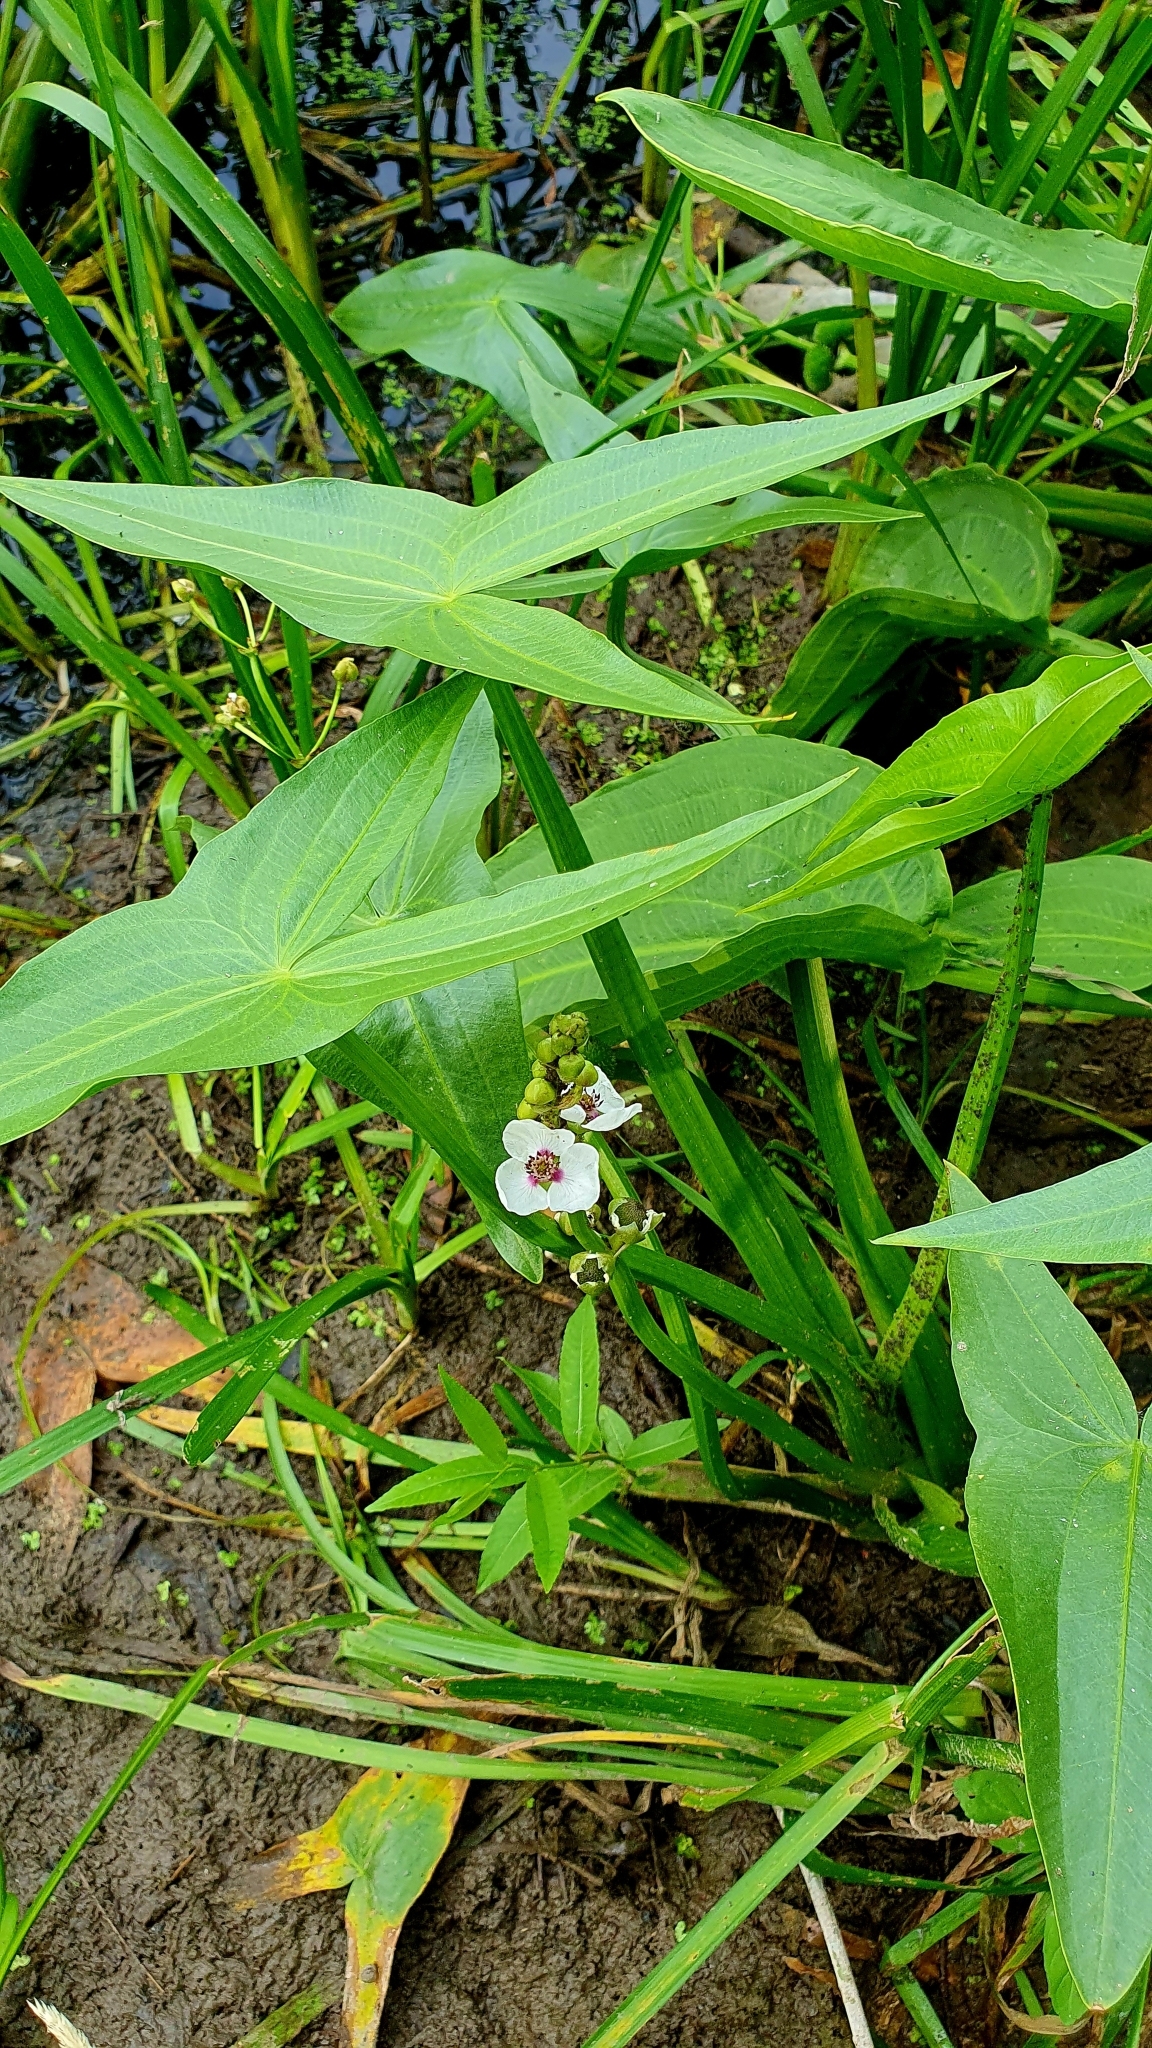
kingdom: Plantae
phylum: Tracheophyta
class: Liliopsida
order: Alismatales
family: Alismataceae
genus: Sagittaria
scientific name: Sagittaria sagittifolia
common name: Arrowhead
